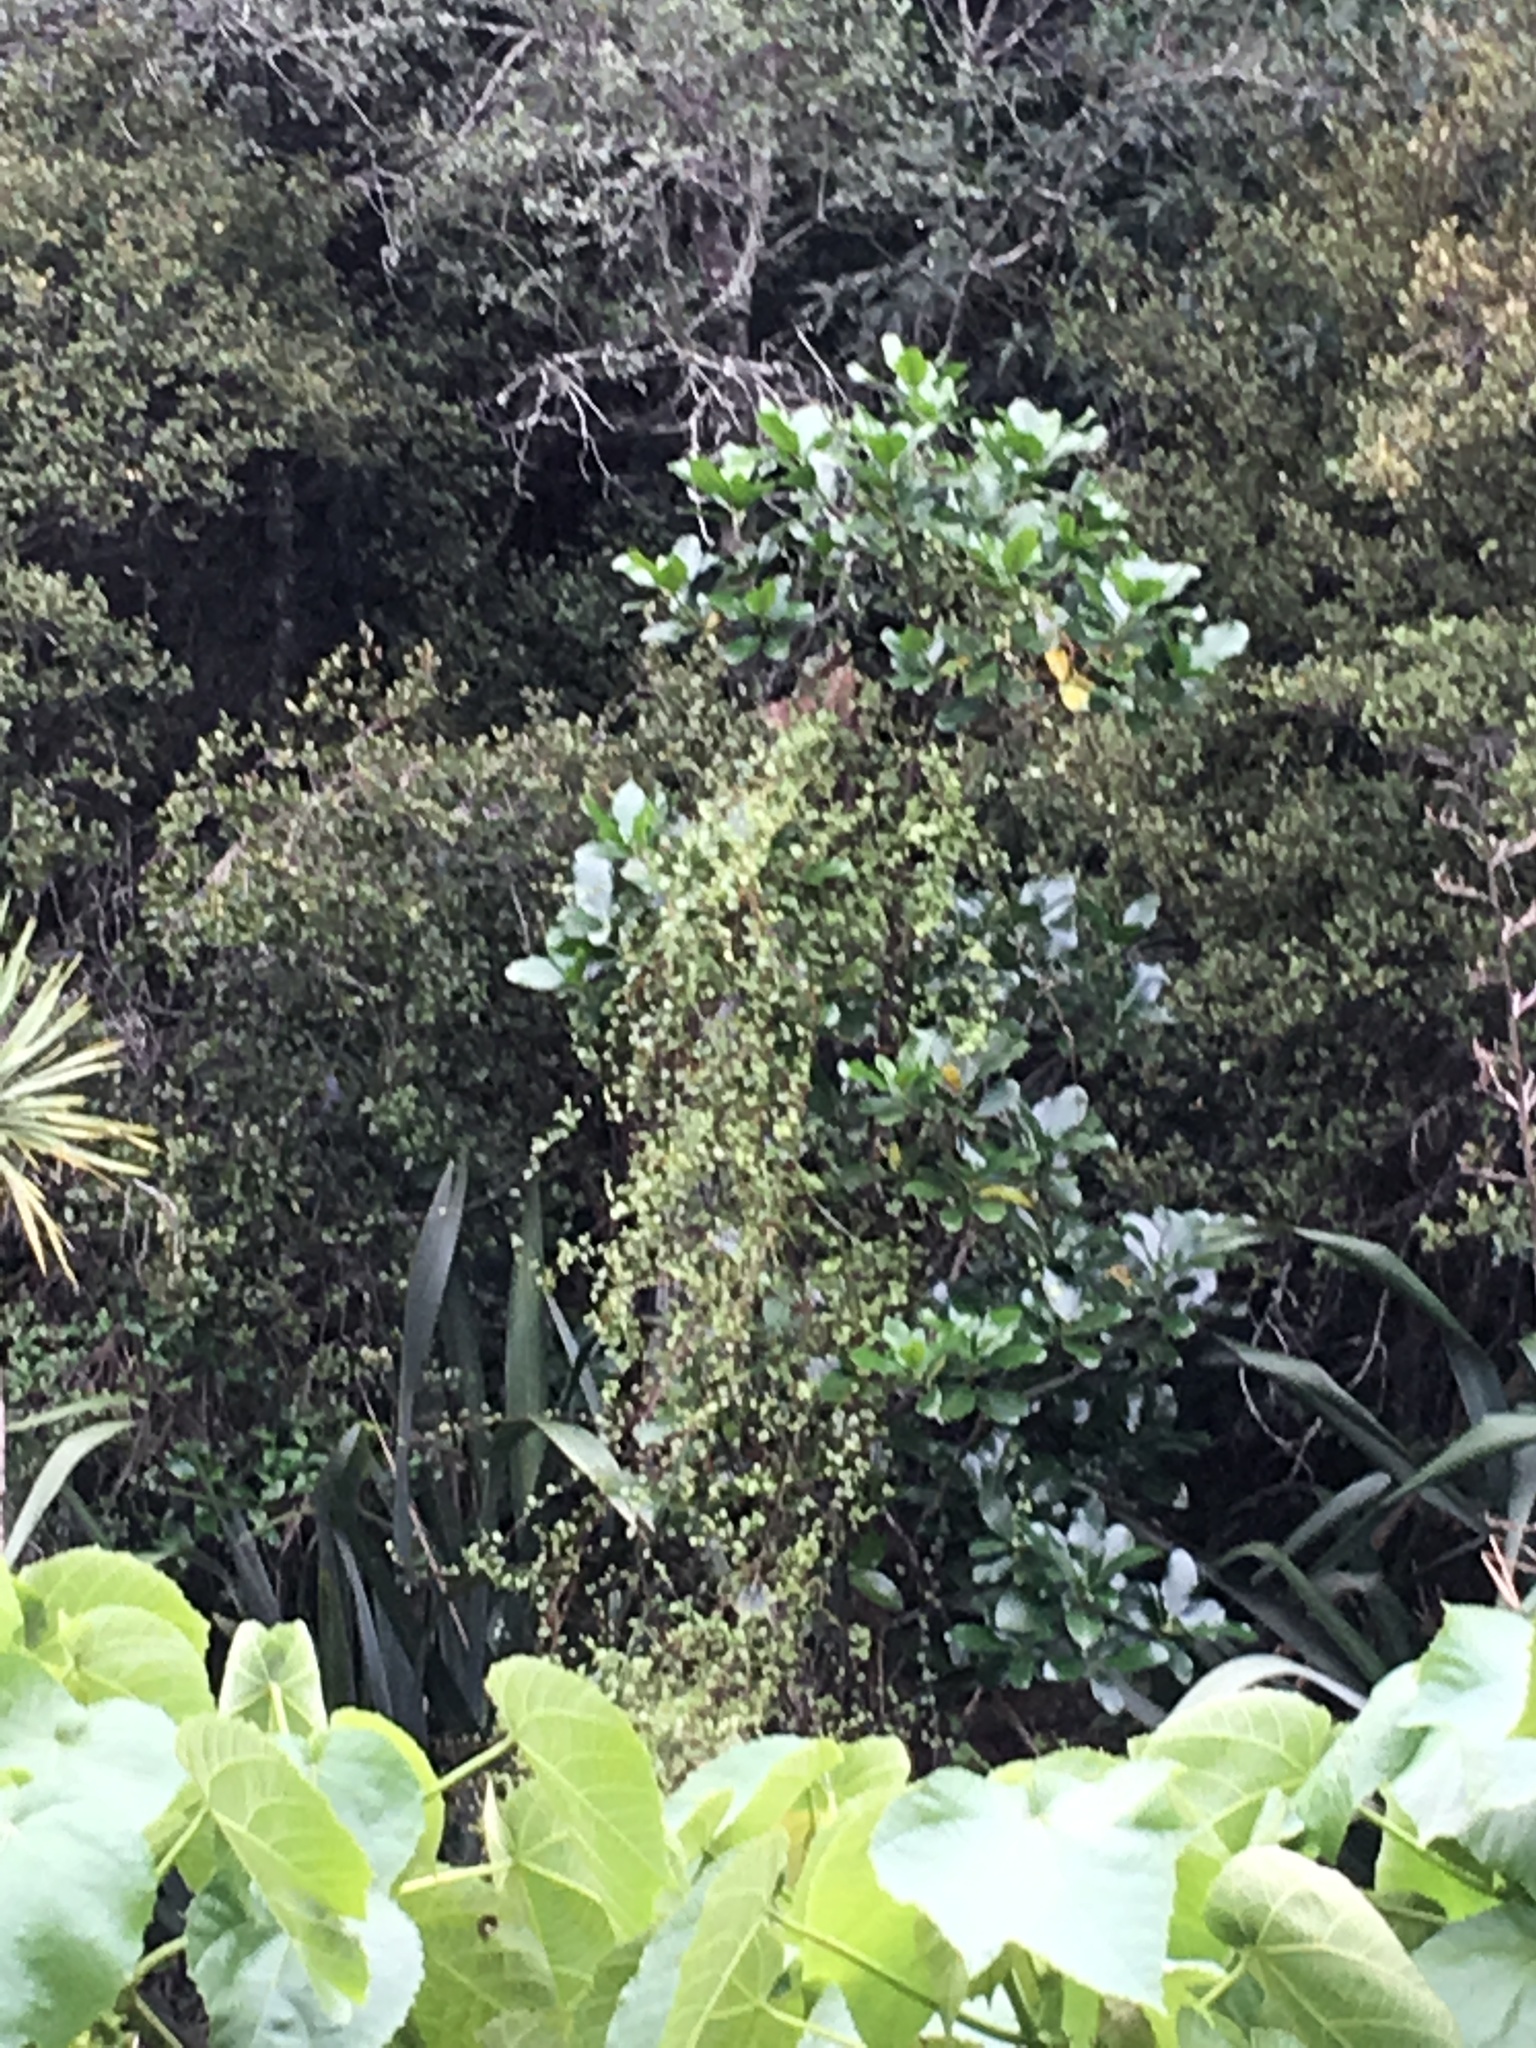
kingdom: Plantae
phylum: Tracheophyta
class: Magnoliopsida
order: Cucurbitales
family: Corynocarpaceae
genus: Corynocarpus
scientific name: Corynocarpus laevigatus
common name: New zealand laurel
